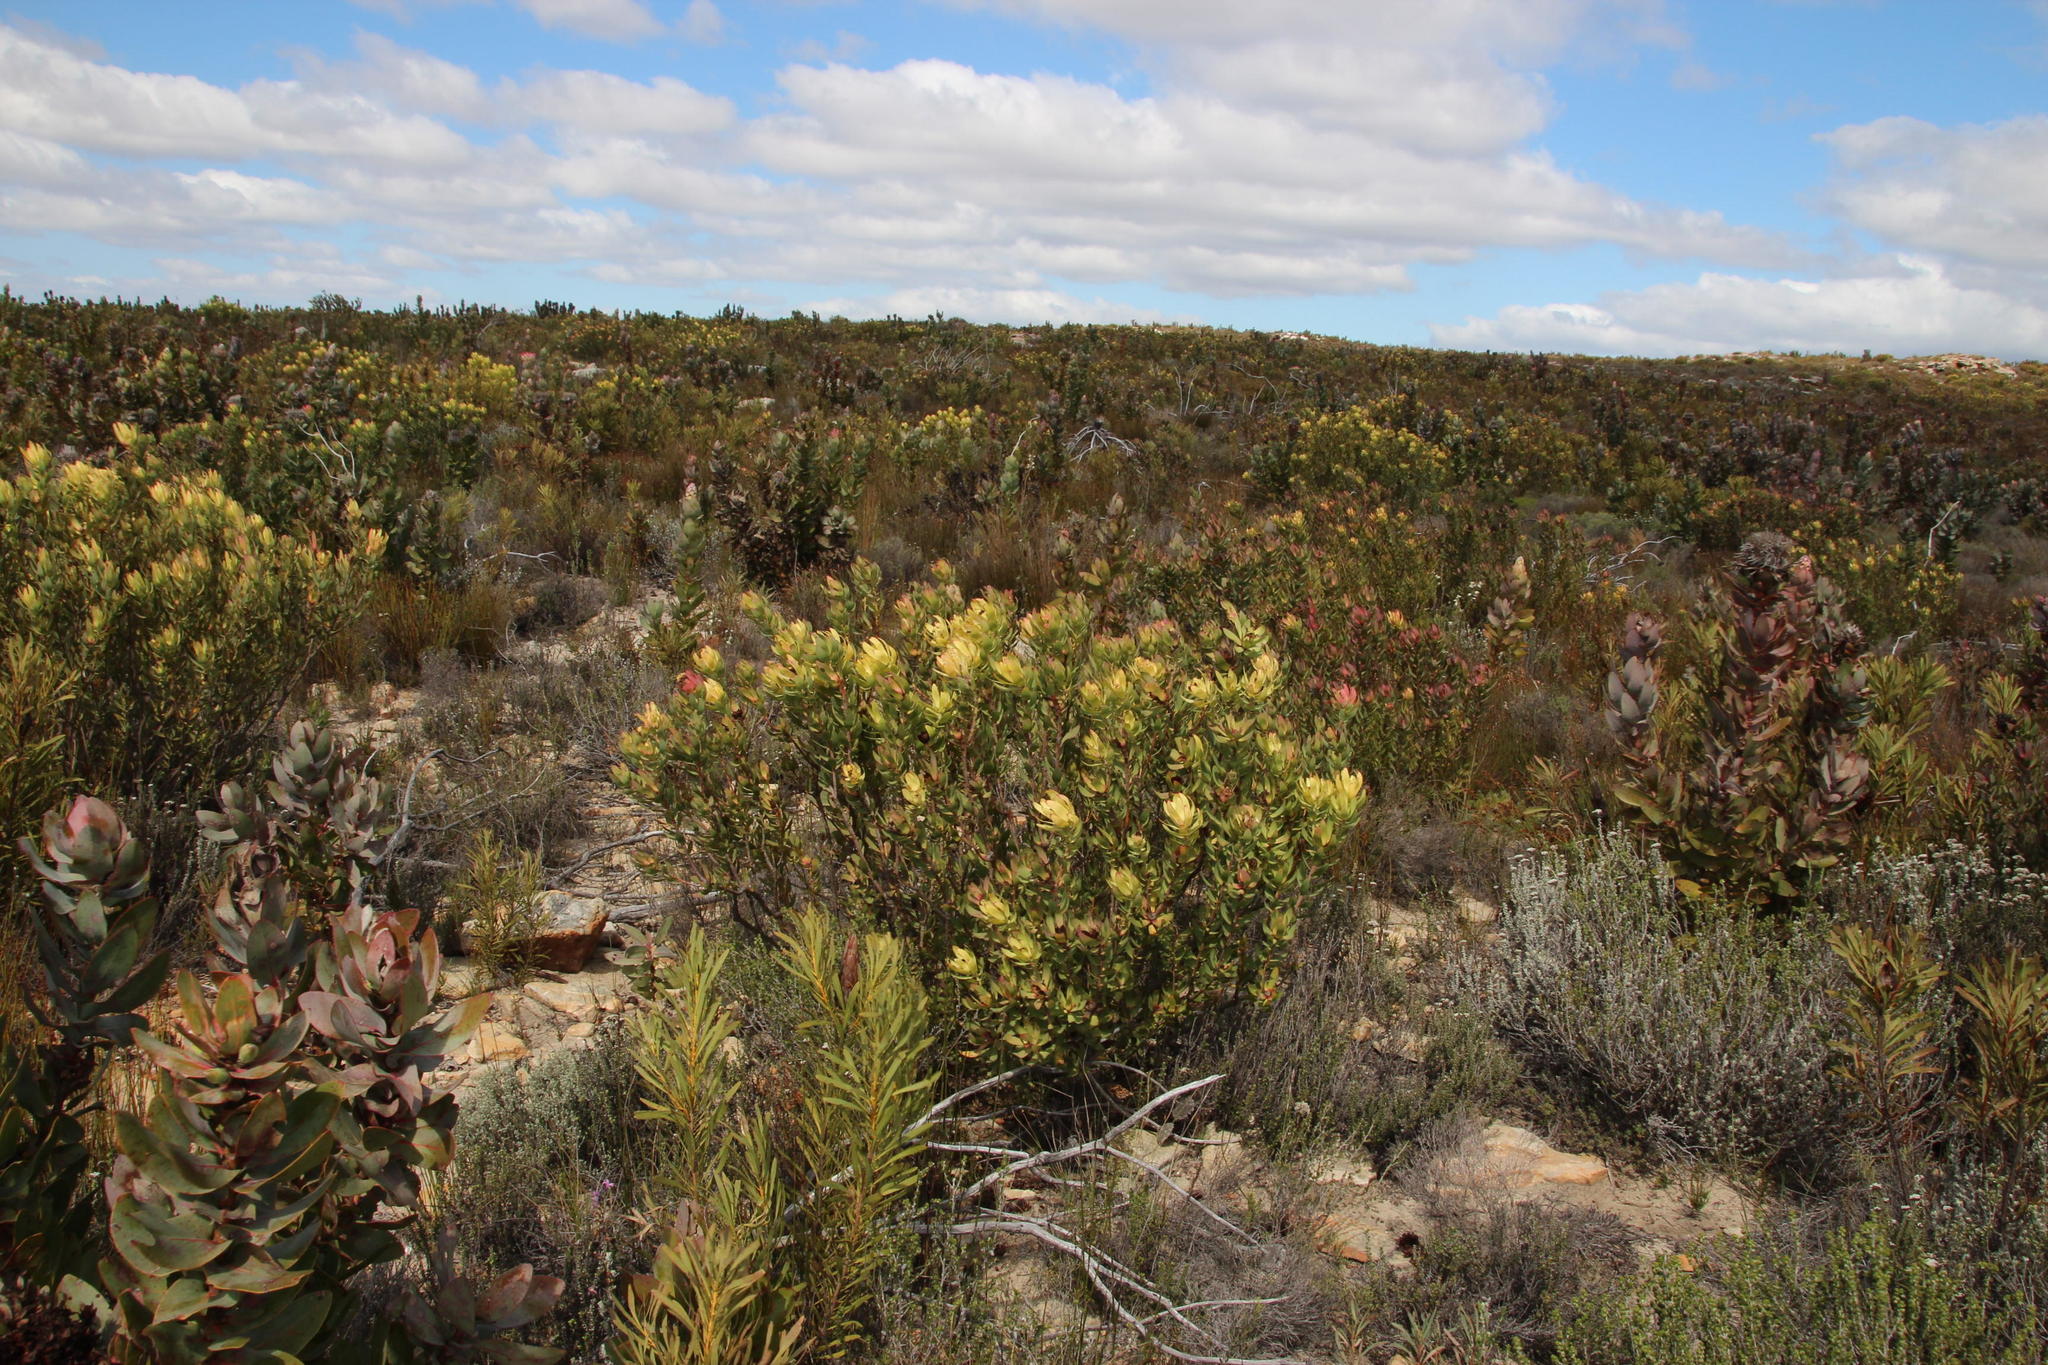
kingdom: Plantae
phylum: Tracheophyta
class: Magnoliopsida
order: Proteales
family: Proteaceae
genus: Leucadendron
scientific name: Leucadendron barkerae
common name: Swartberg conebush
